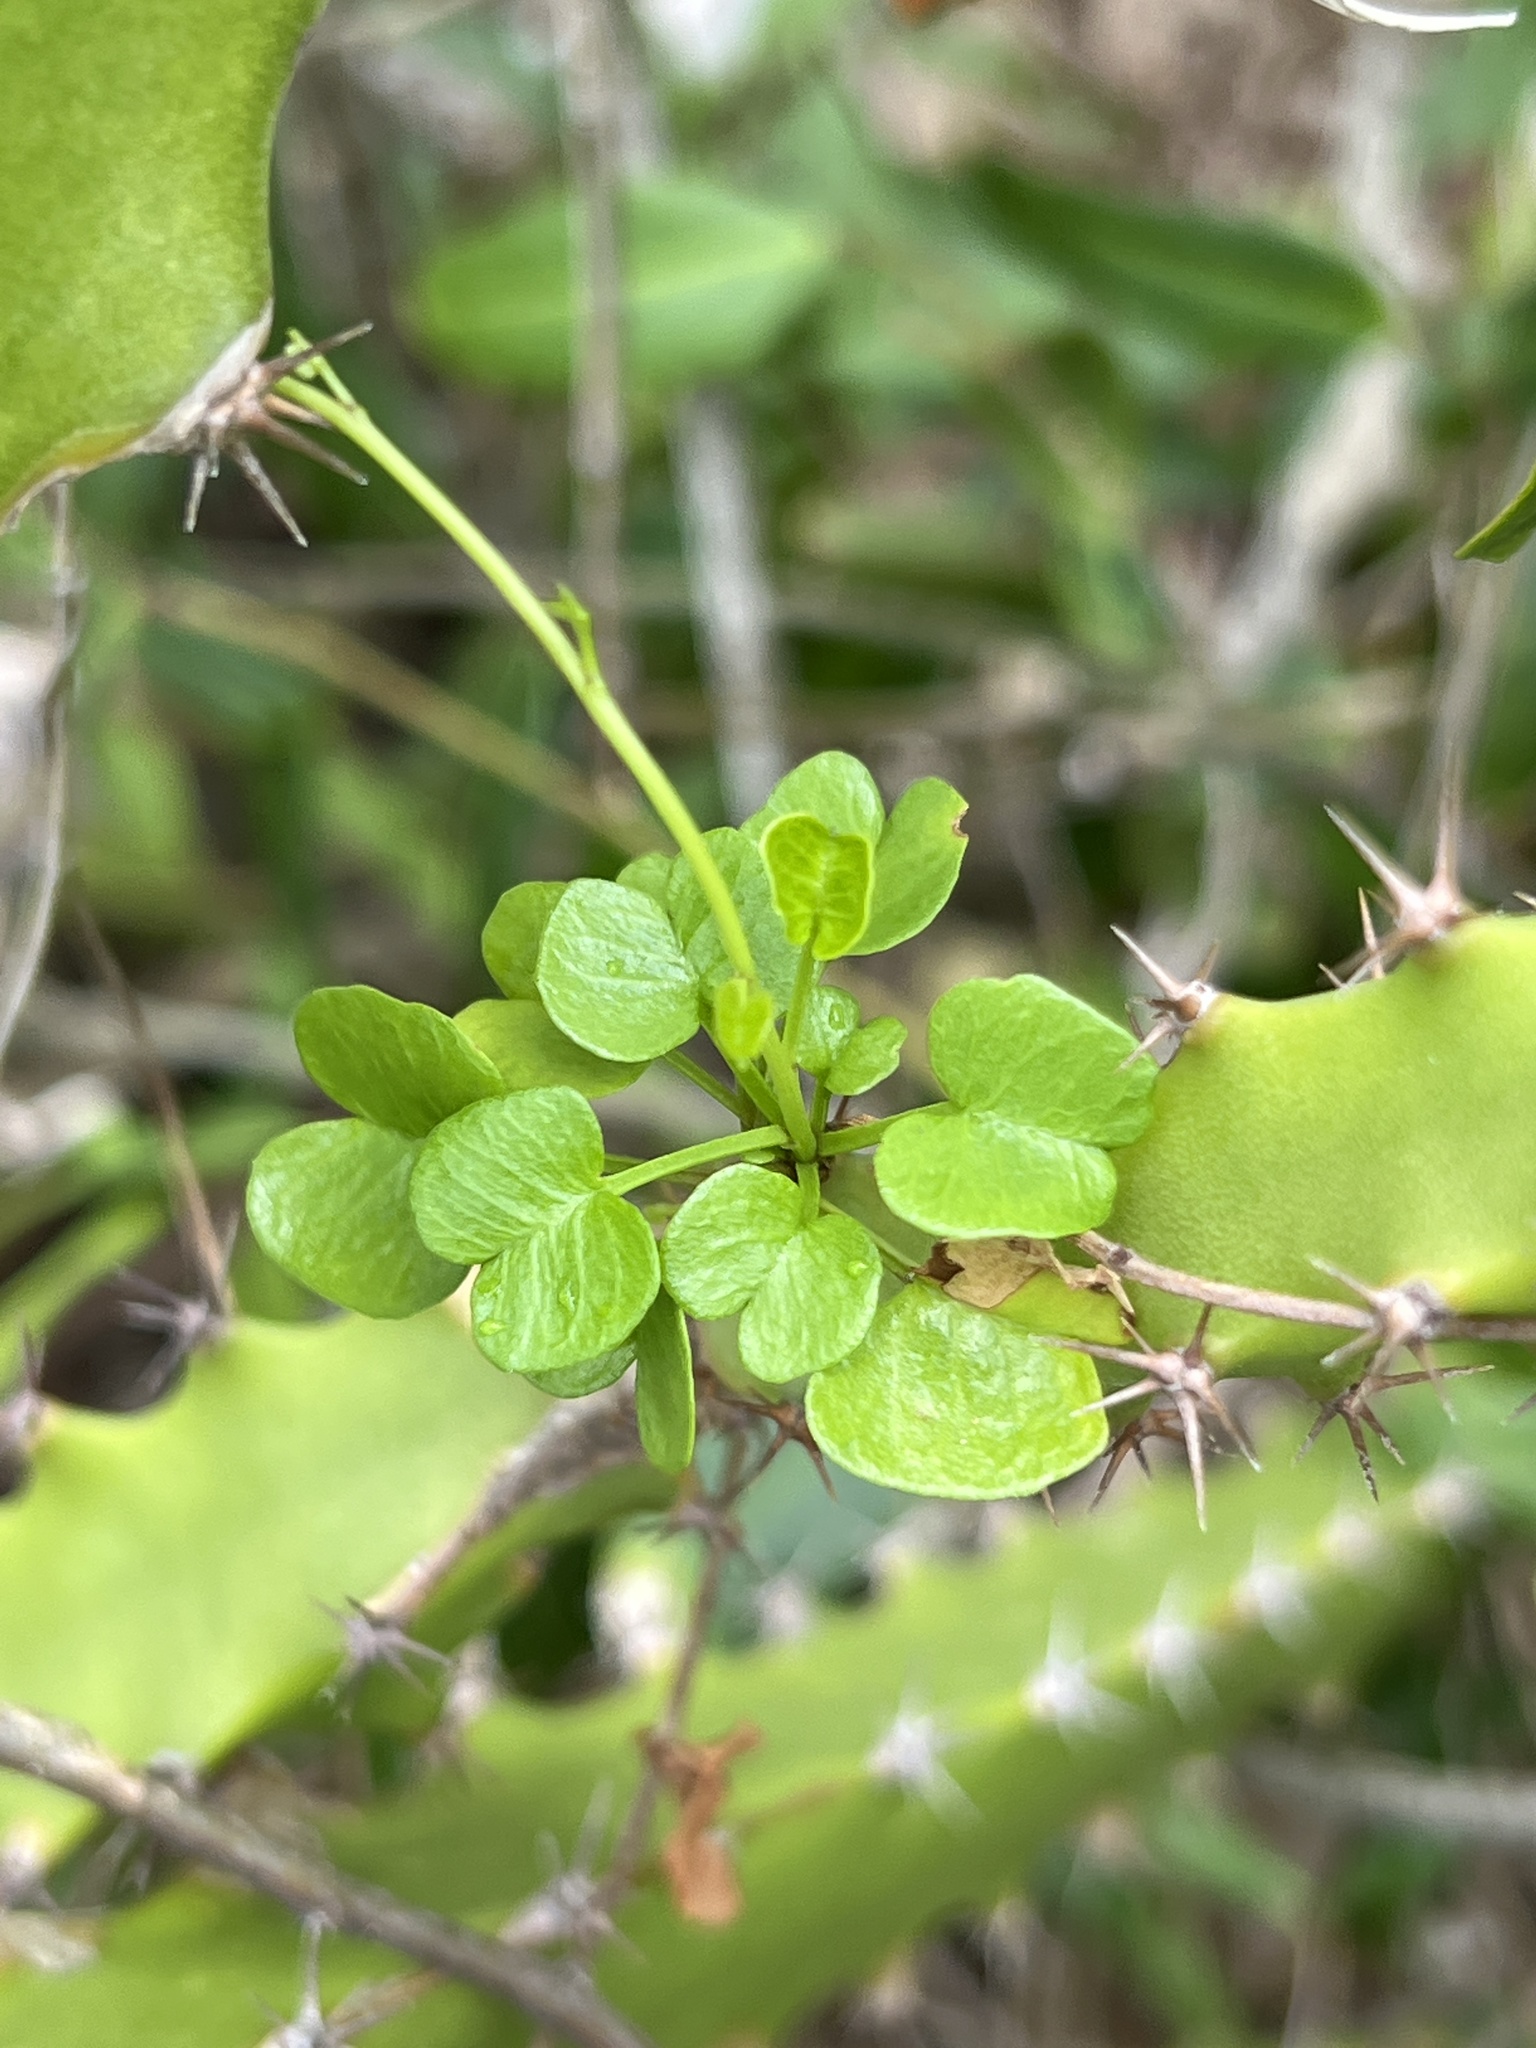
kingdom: Plantae
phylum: Tracheophyta
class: Magnoliopsida
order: Solanales
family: Convolvulaceae
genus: Ipomoea
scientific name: Ipomoea eggersiana
